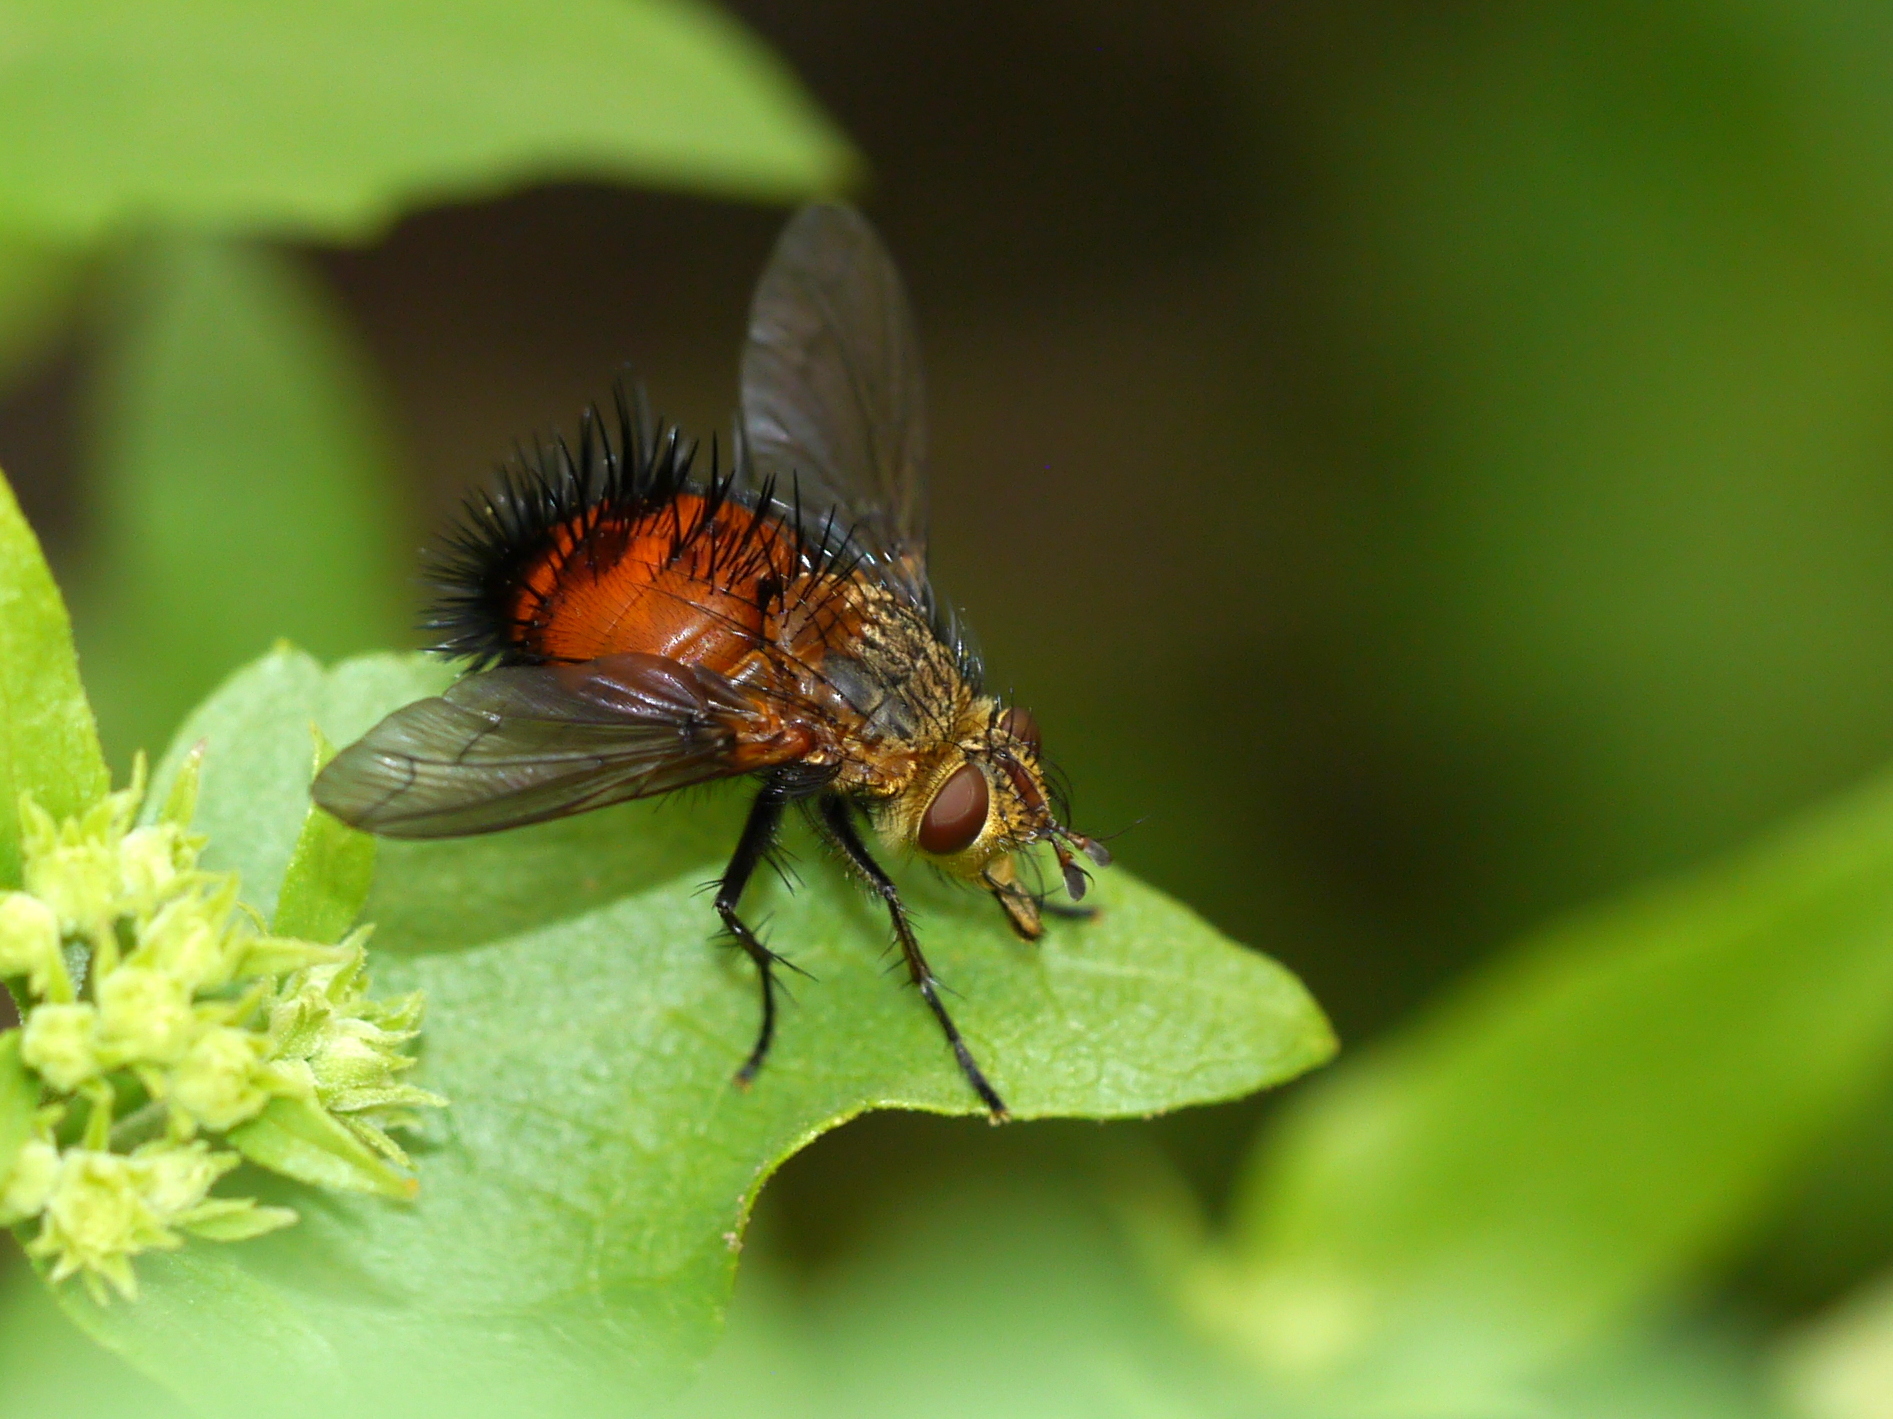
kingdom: Animalia
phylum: Arthropoda
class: Insecta
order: Diptera
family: Tachinidae
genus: Protodejeania
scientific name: Protodejeania hystricosa
